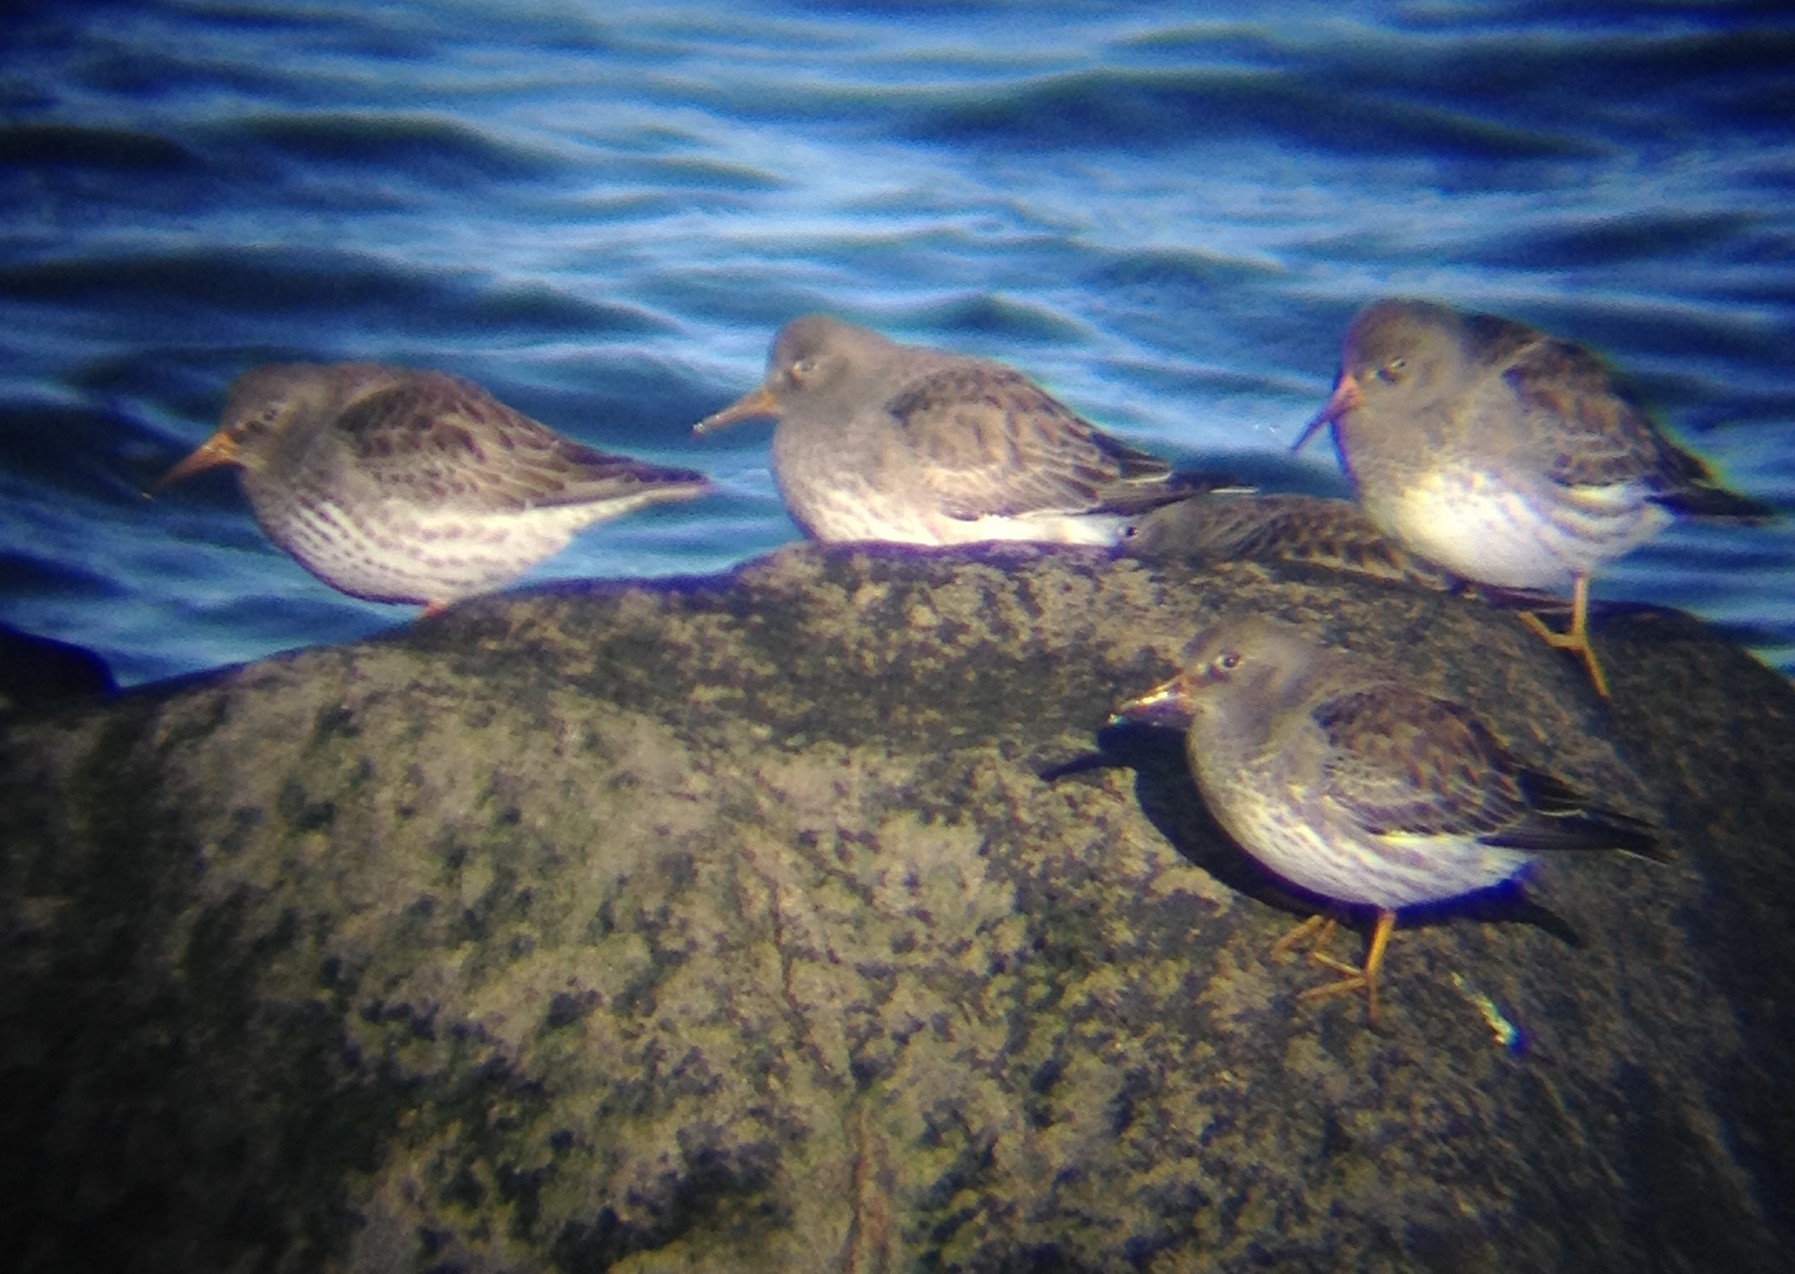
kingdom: Animalia
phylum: Chordata
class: Aves
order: Charadriiformes
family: Scolopacidae
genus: Calidris
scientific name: Calidris maritima
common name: Purple sandpiper
